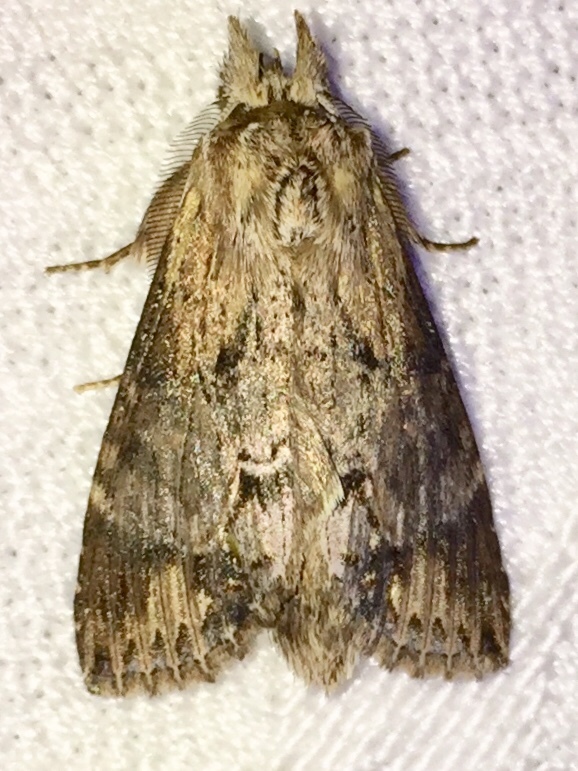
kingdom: Animalia
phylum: Arthropoda
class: Insecta
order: Lepidoptera
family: Notodontidae
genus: Dasylophia
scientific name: Dasylophia thyatiroides
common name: Gray-patched prominent
